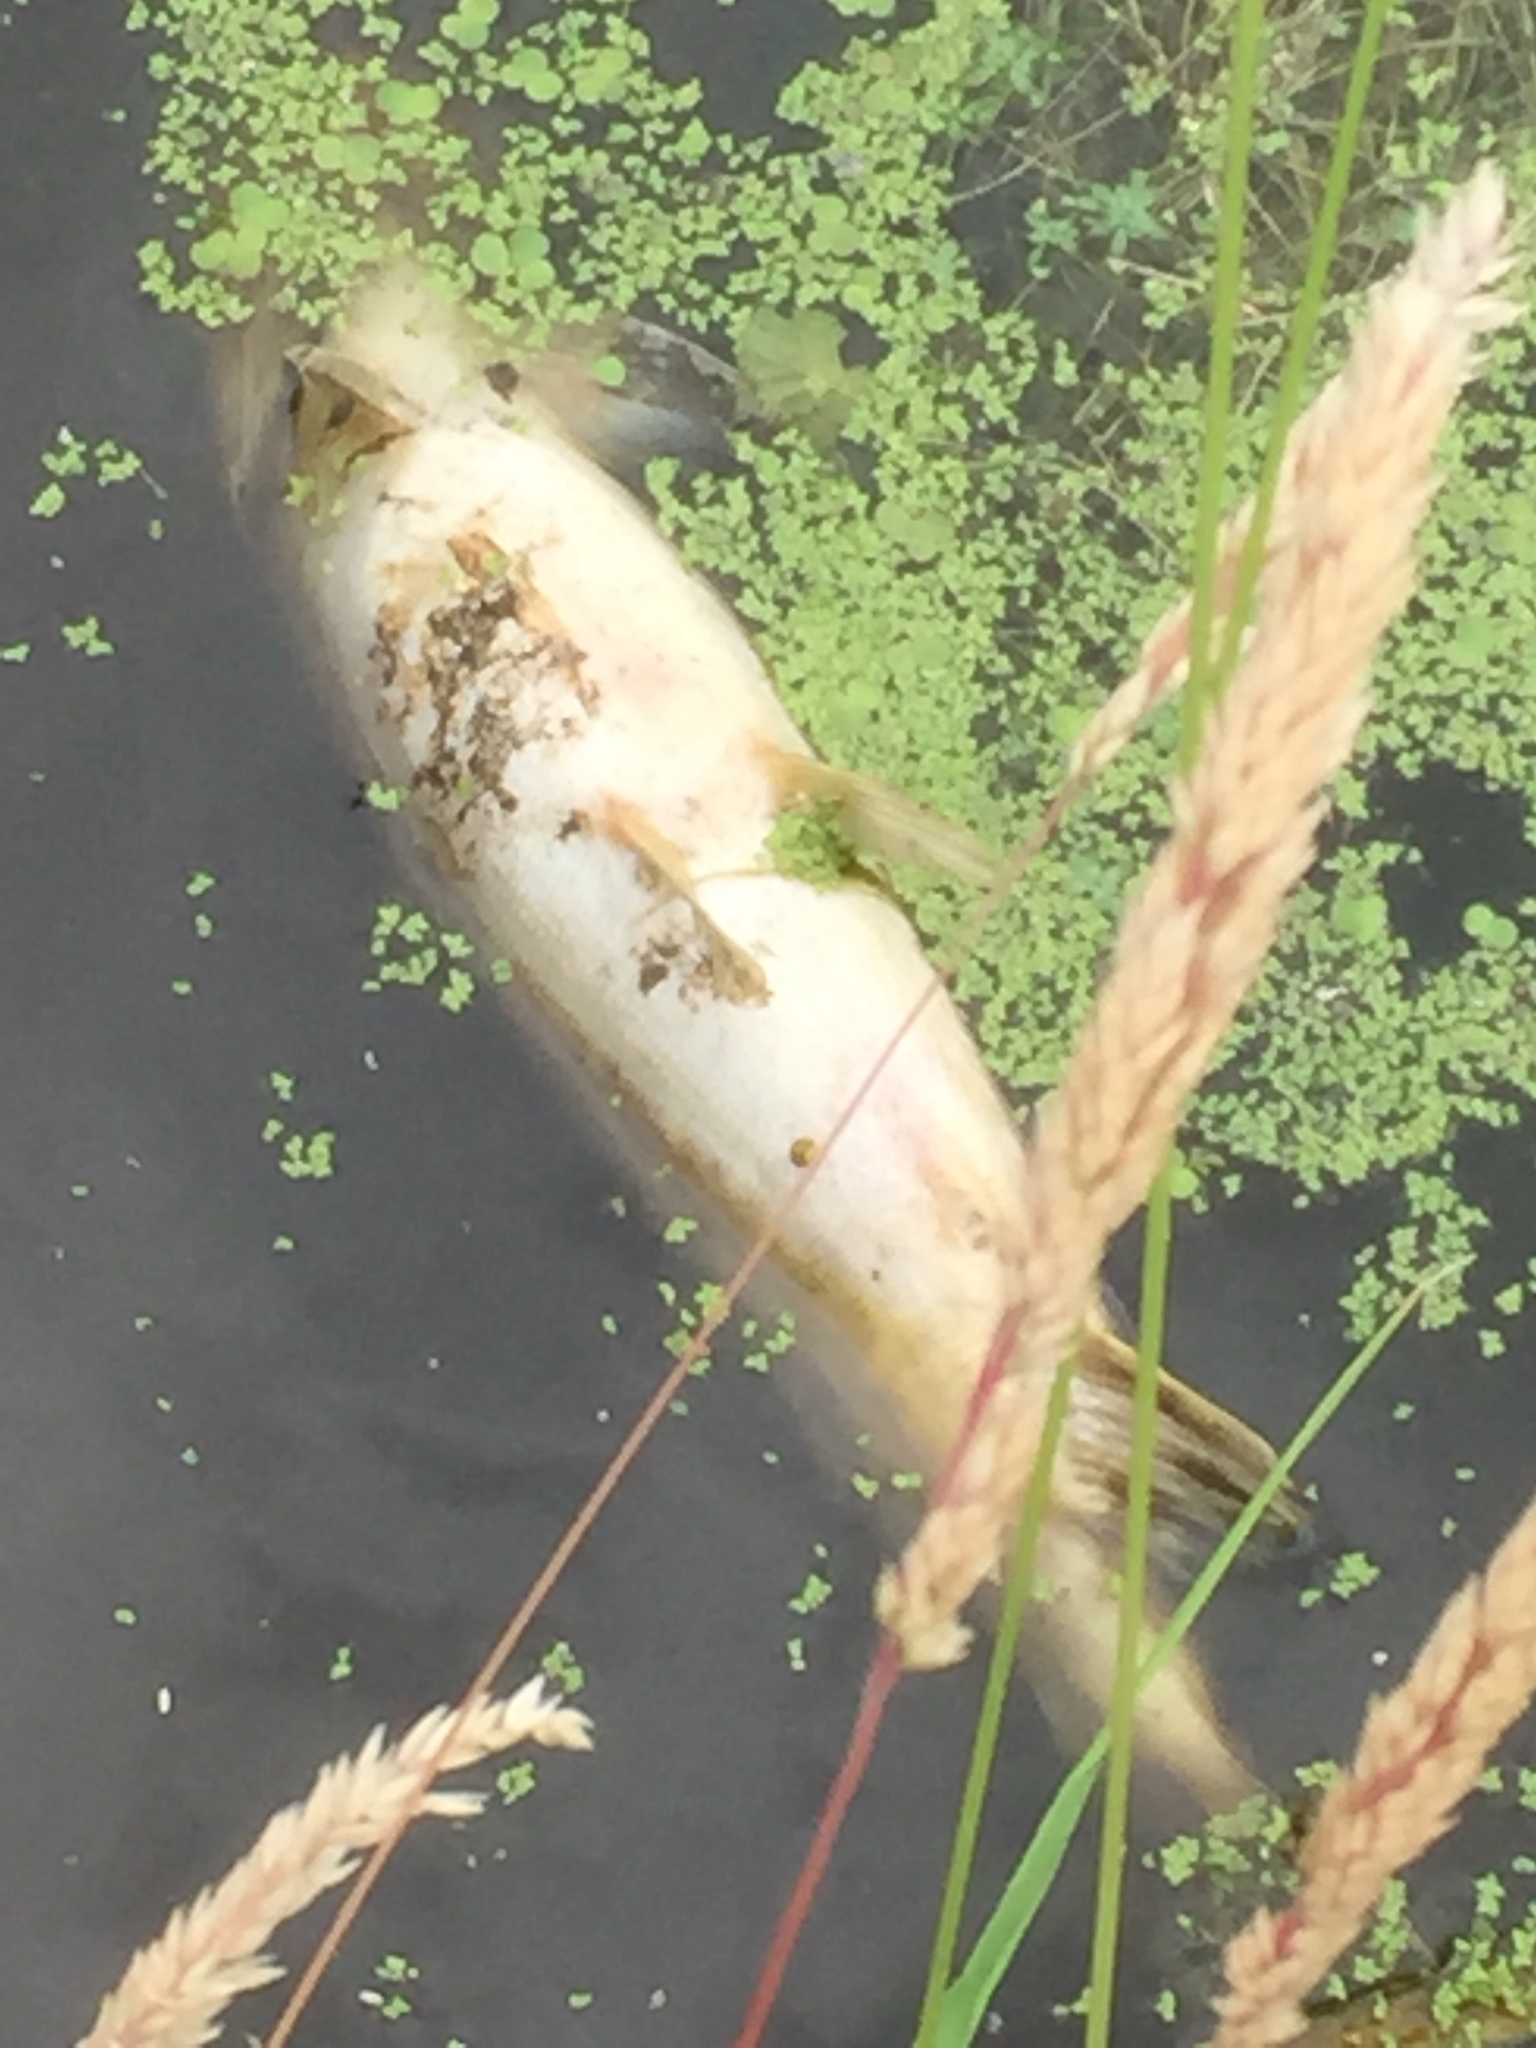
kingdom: Animalia
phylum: Chordata
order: Esociformes
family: Esocidae
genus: Esox
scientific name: Esox lucius
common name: Northern pike
